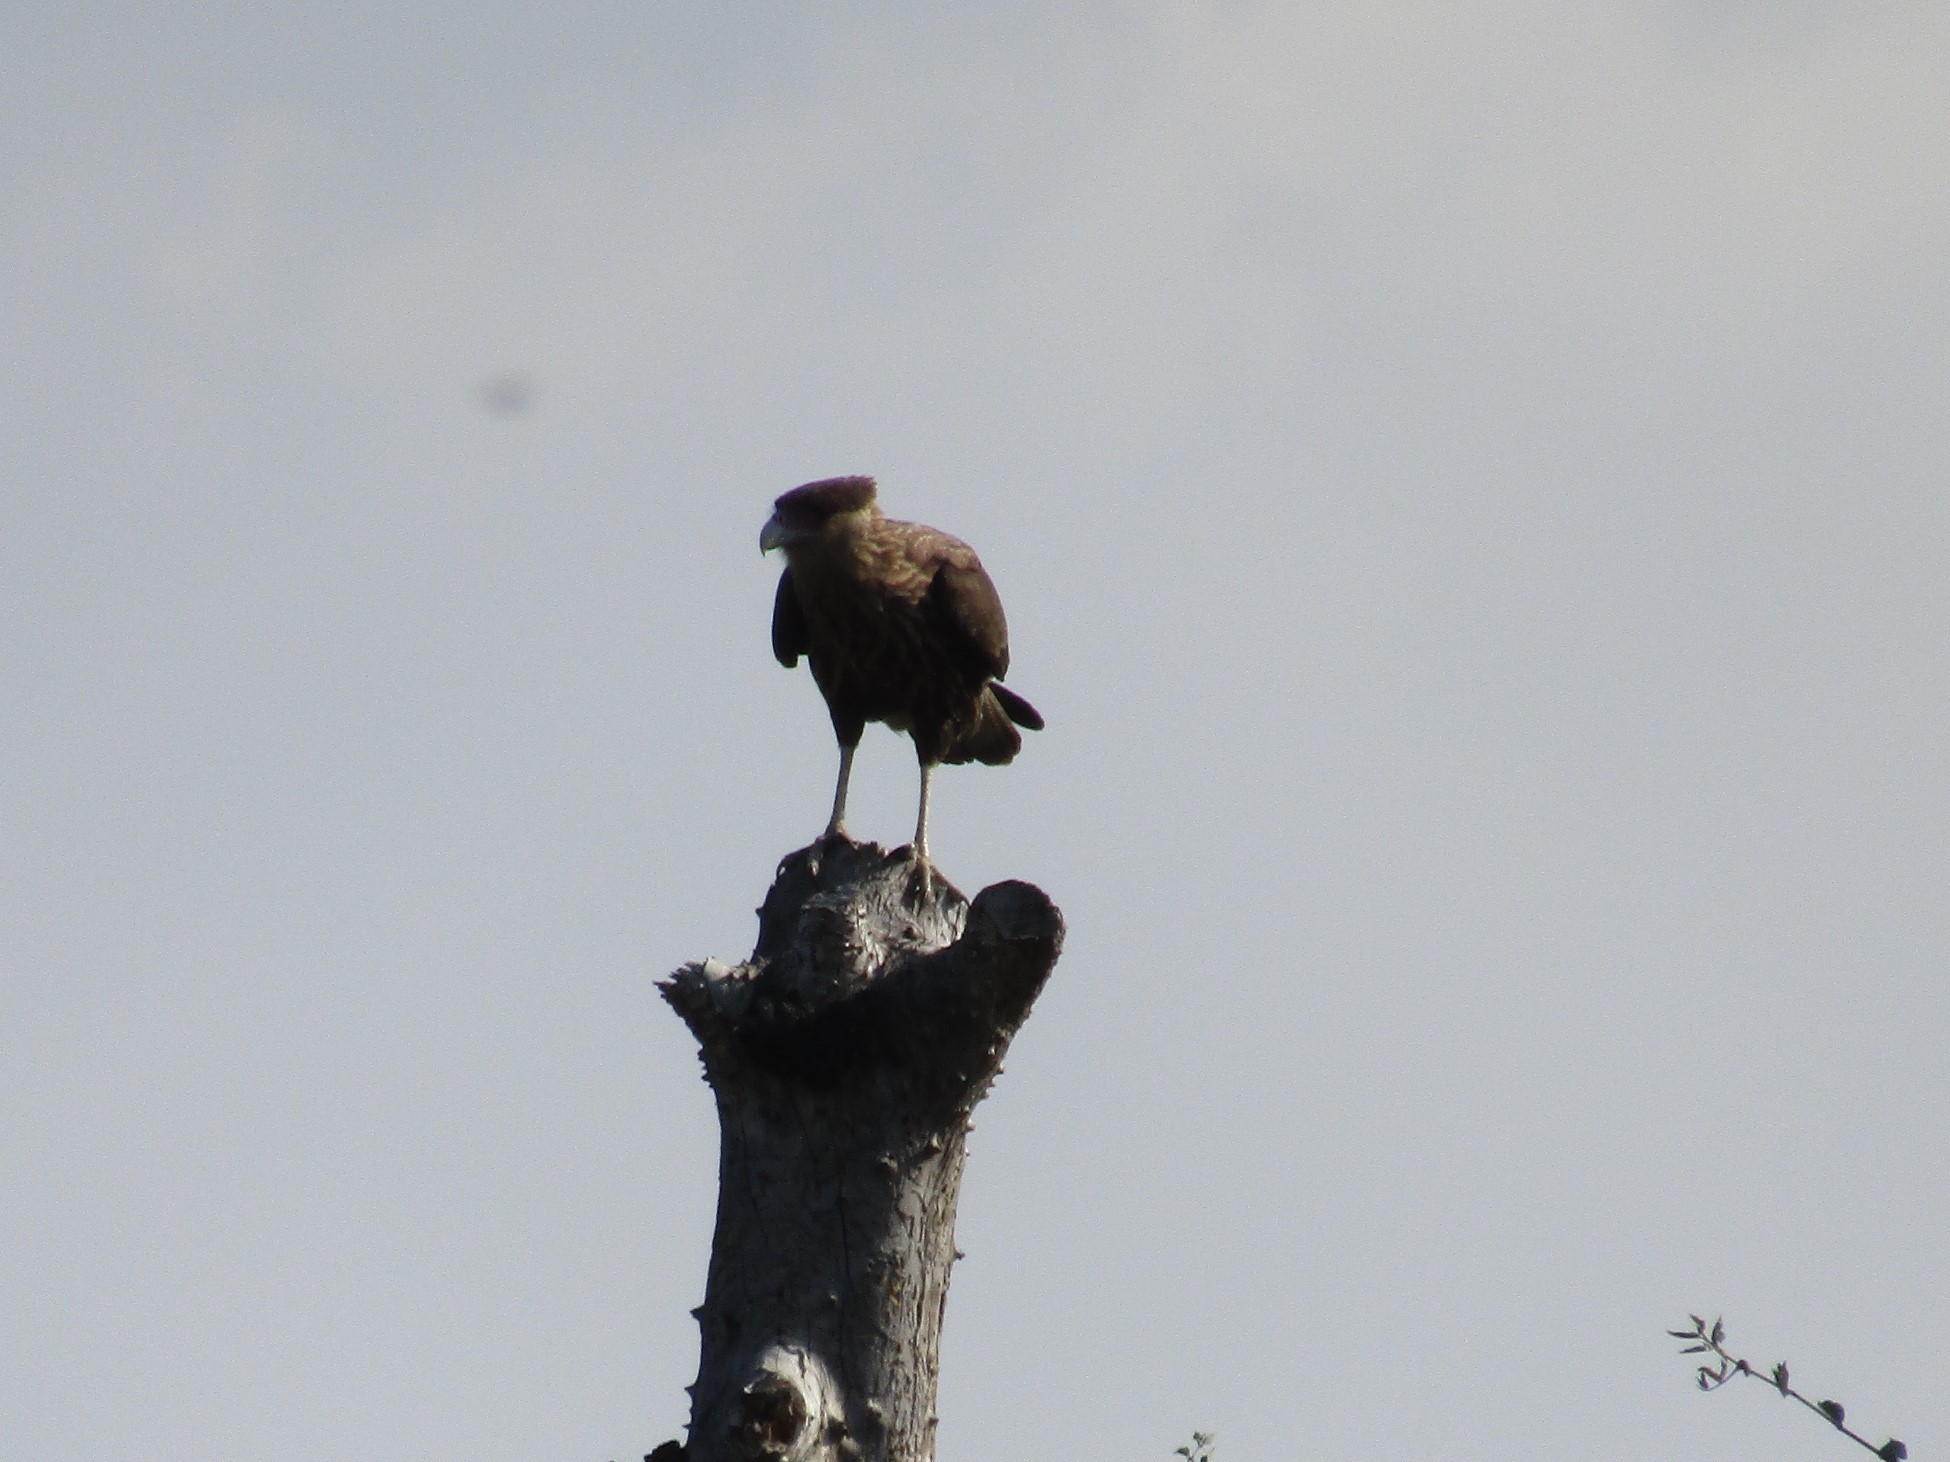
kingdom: Animalia
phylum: Chordata
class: Aves
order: Falconiformes
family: Falconidae
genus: Caracara
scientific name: Caracara plancus
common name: Southern caracara
